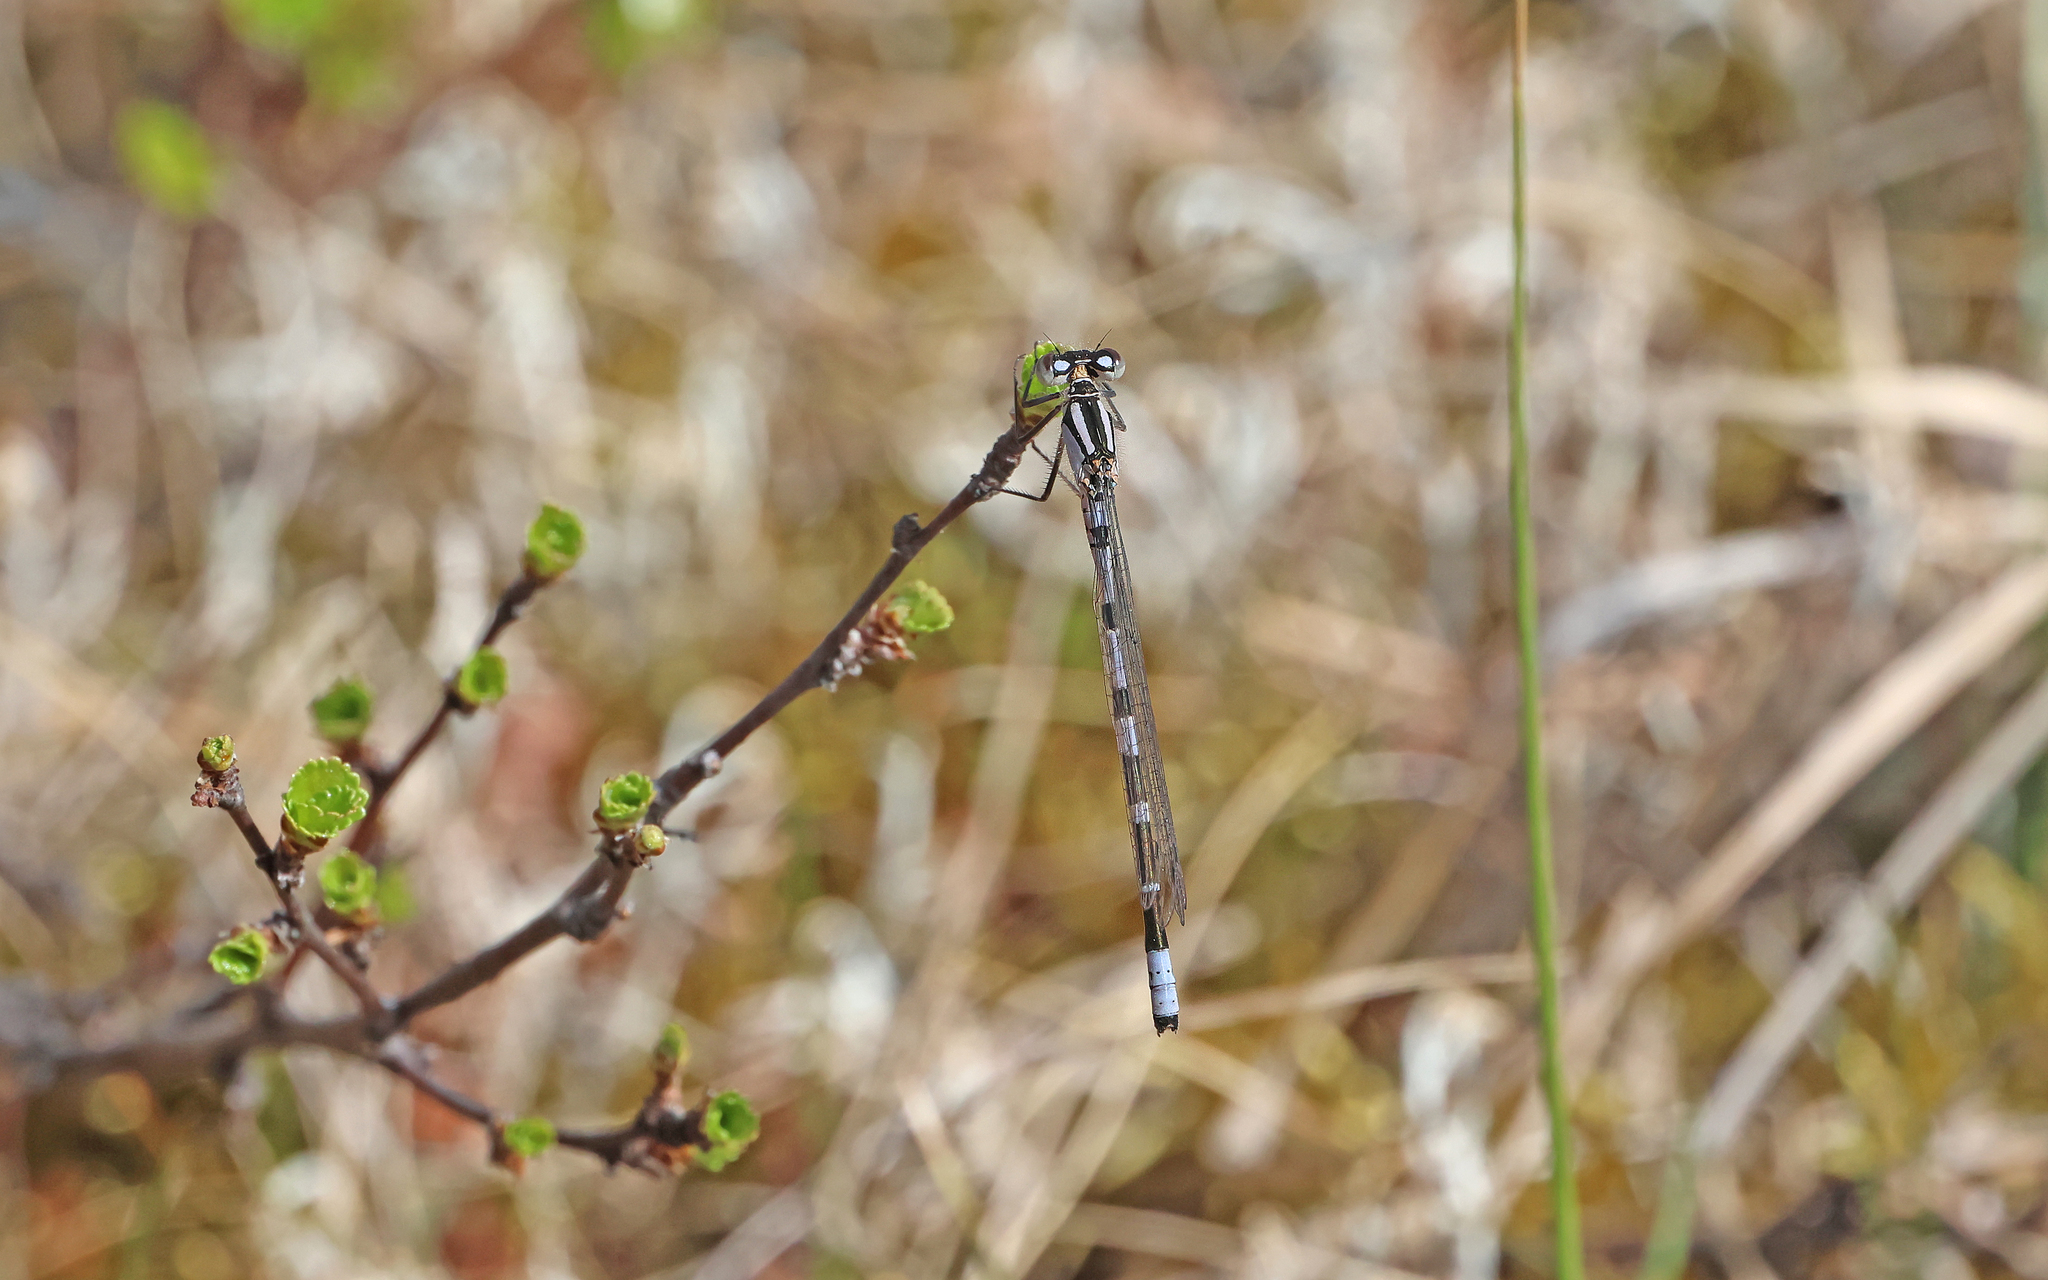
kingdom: Animalia
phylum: Arthropoda
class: Insecta
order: Odonata
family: Coenagrionidae
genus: Enallagma
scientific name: Enallagma cyathigerum
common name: Common blue damselfly
